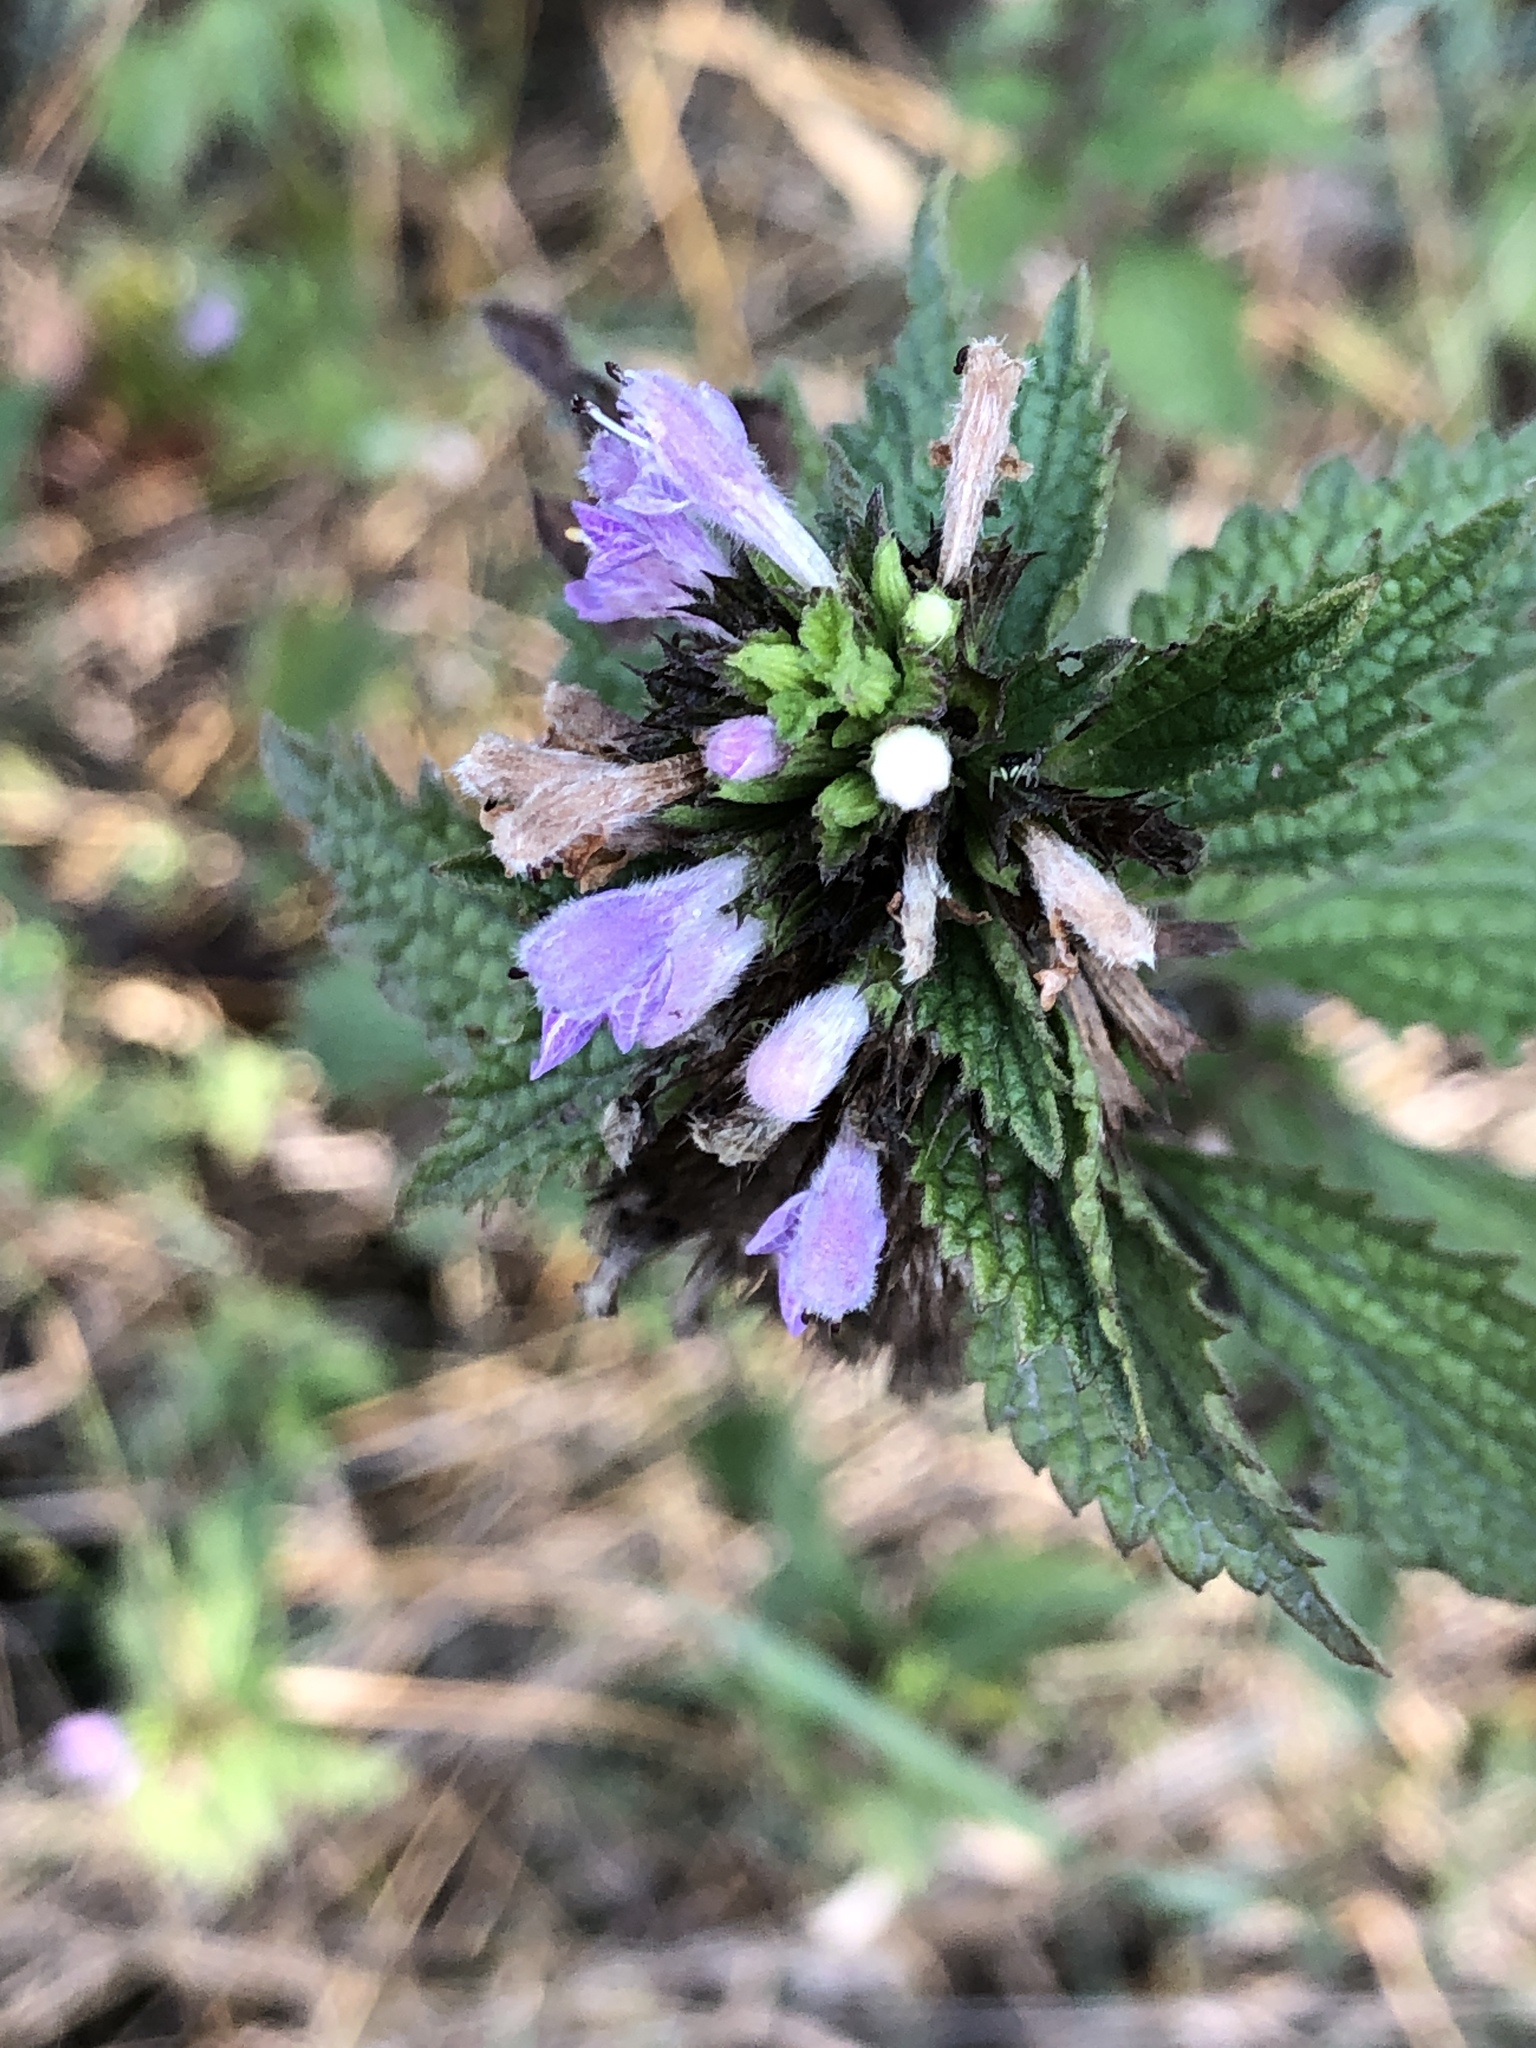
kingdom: Plantae
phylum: Tracheophyta
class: Magnoliopsida
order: Lamiales
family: Lamiaceae
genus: Ballota
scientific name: Ballota nigra
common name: Black horehound
